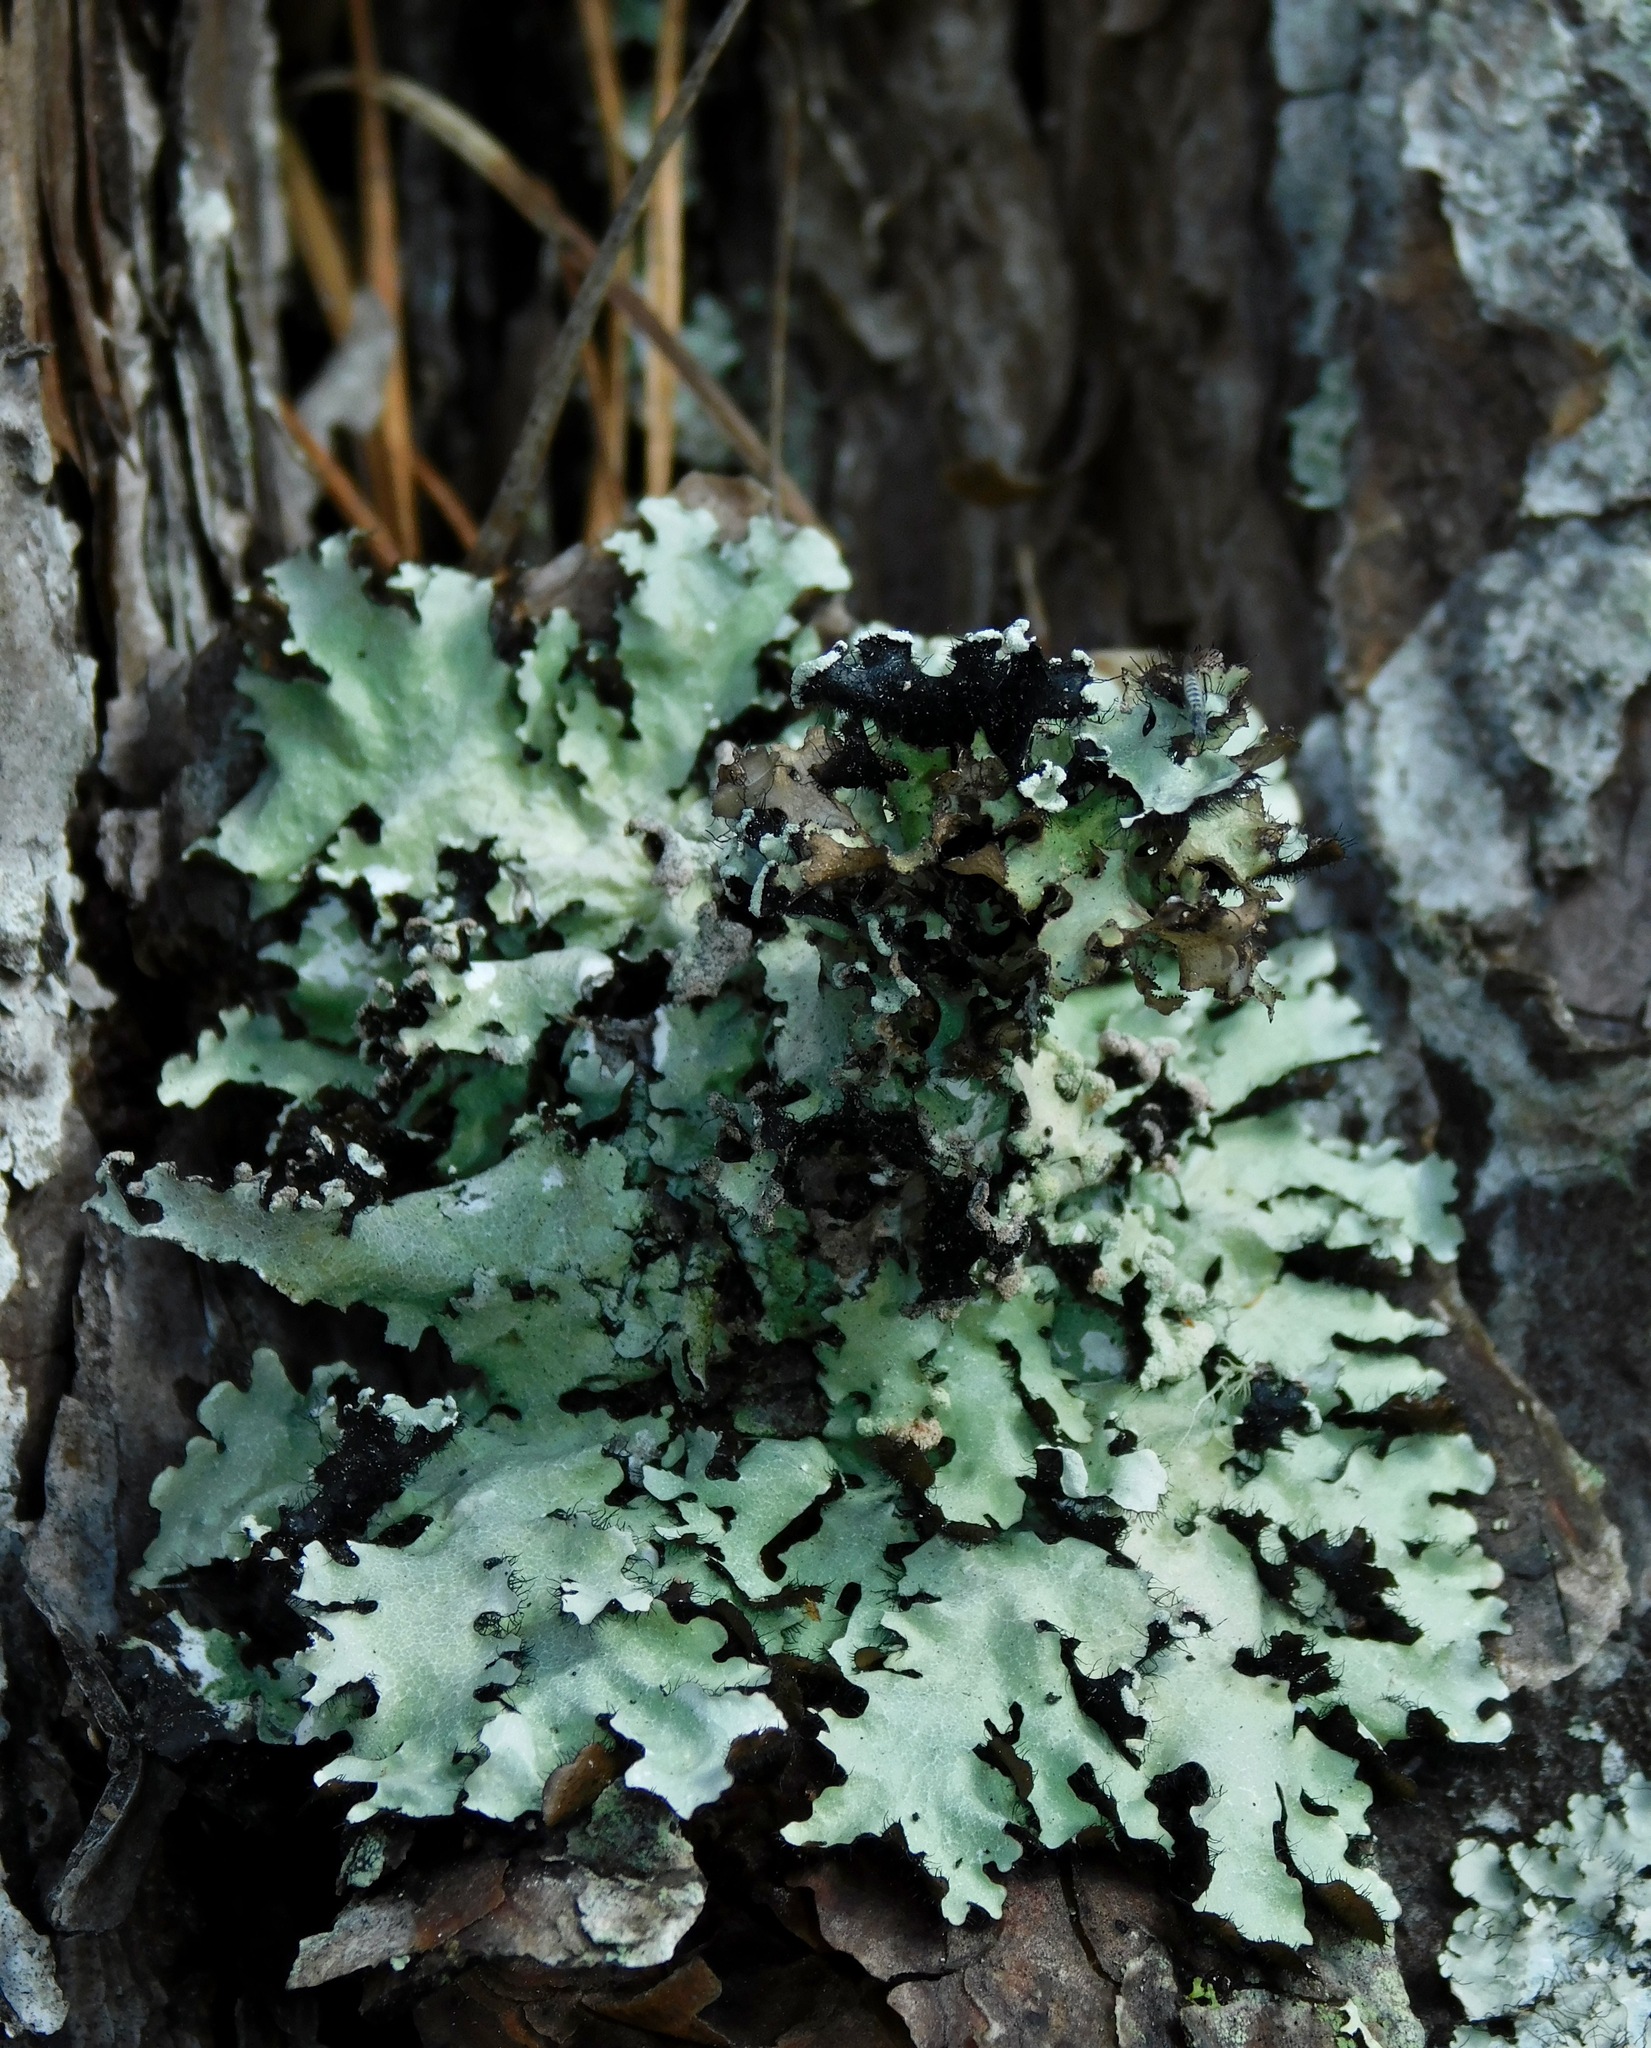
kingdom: Fungi
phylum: Ascomycota
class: Lecanoromycetes
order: Lecanorales
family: Parmeliaceae
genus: Parmotrema
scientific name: Parmotrema reticulatum
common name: Black sheet lichen
